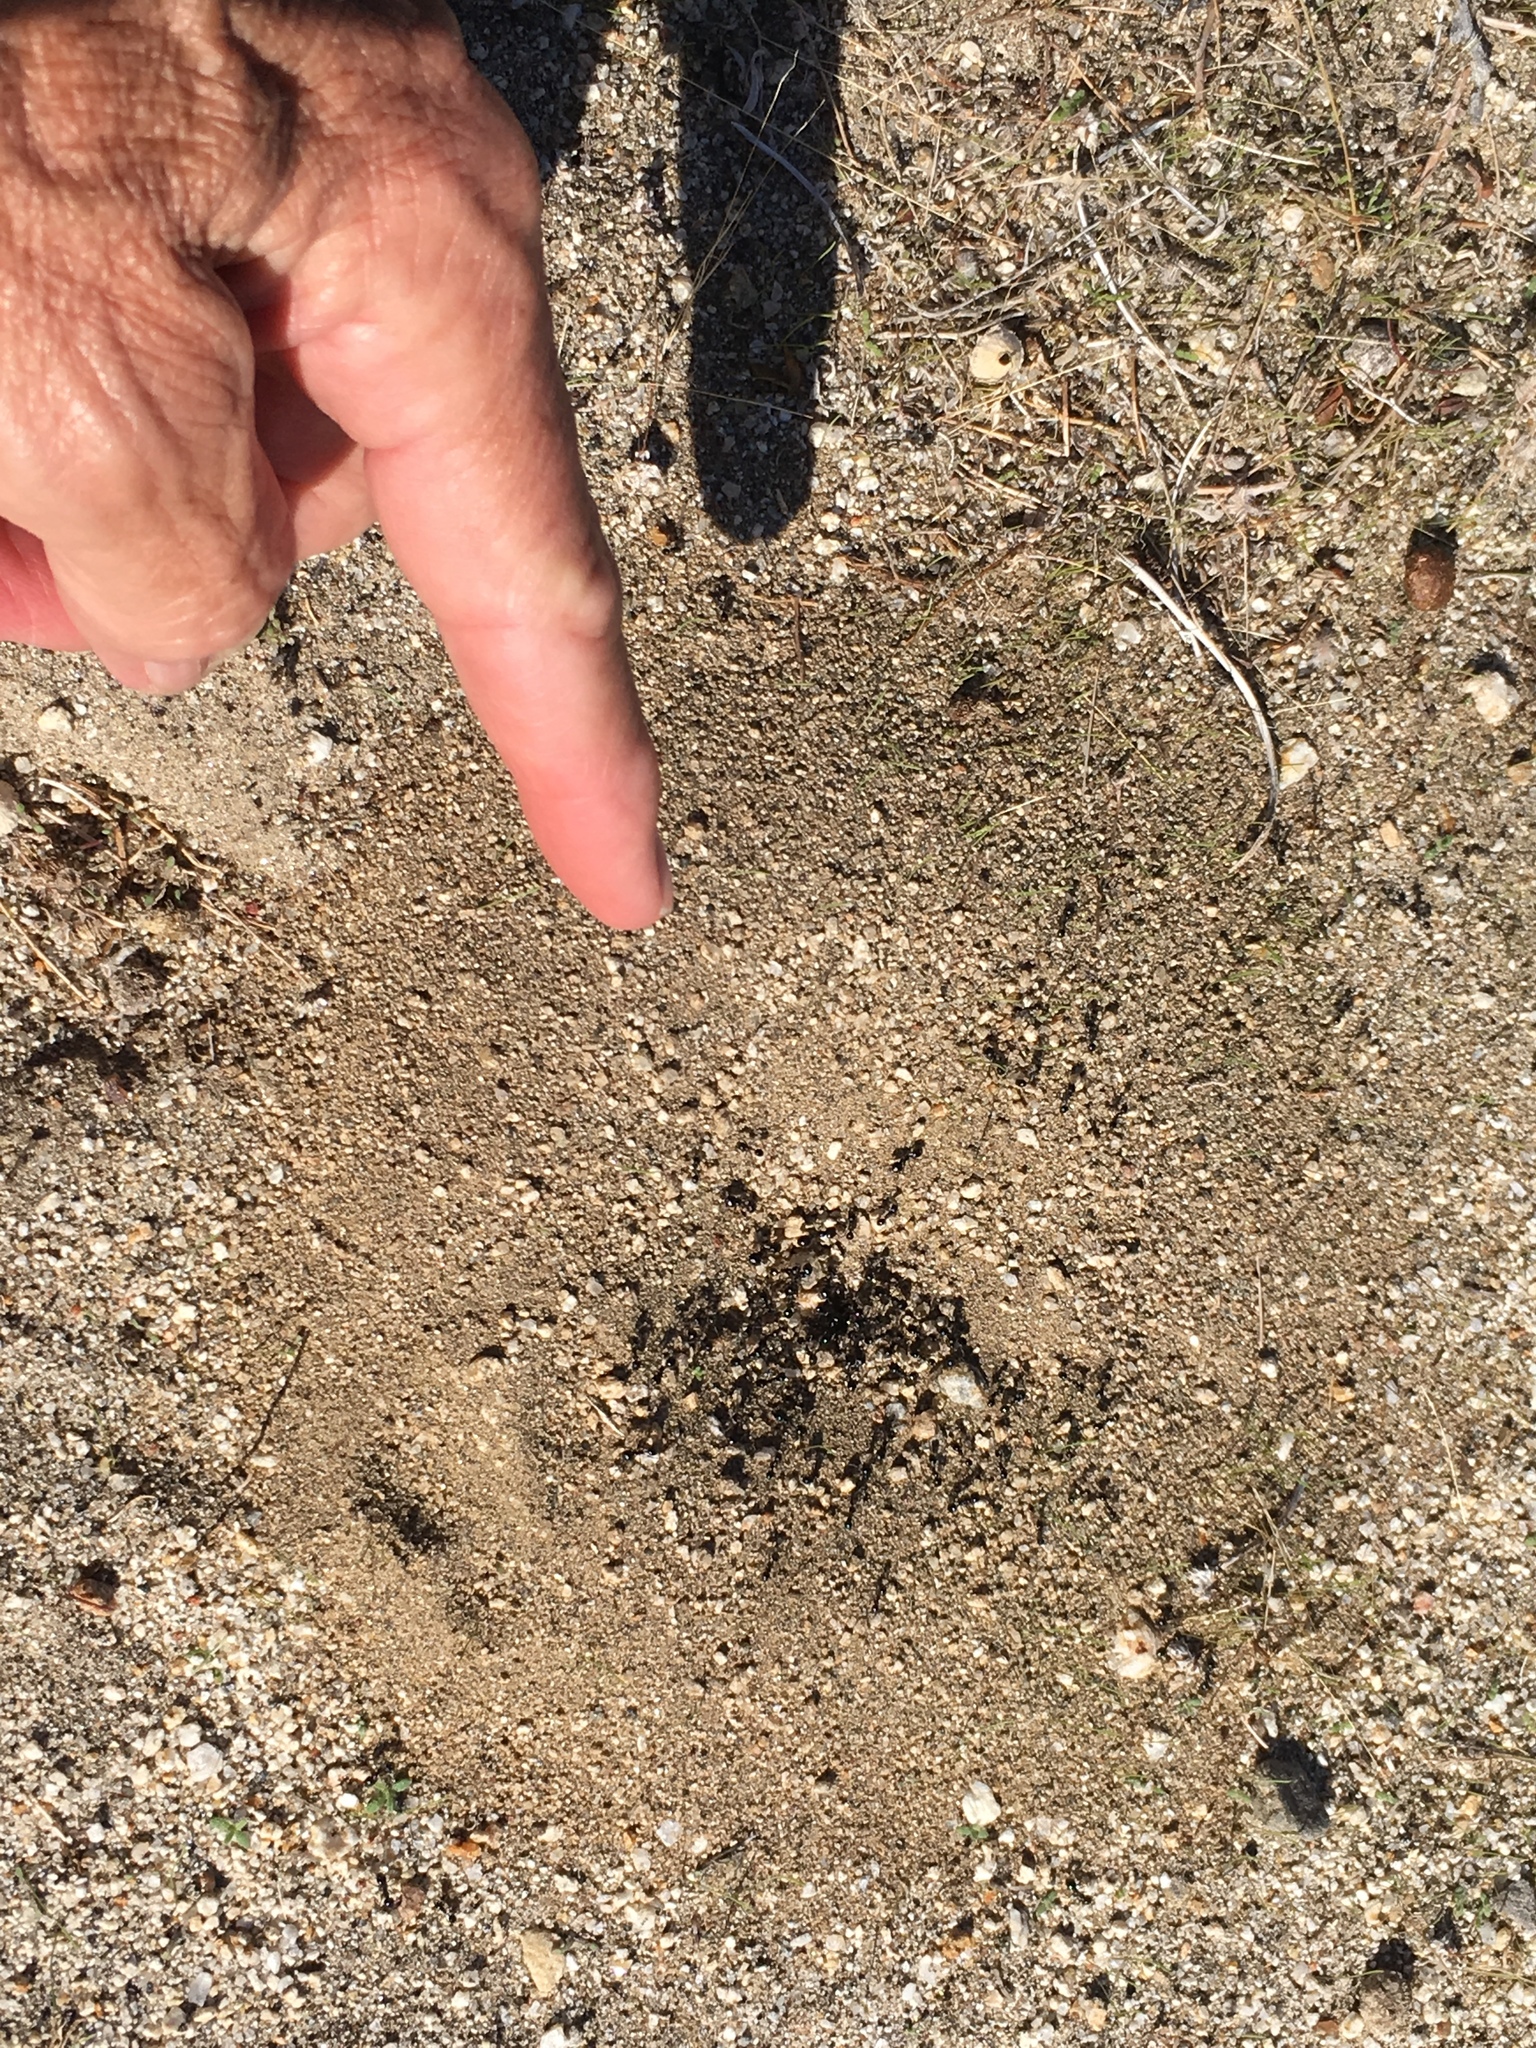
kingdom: Animalia
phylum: Arthropoda
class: Insecta
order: Hymenoptera
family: Formicidae
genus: Messor
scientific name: Messor pergandei
